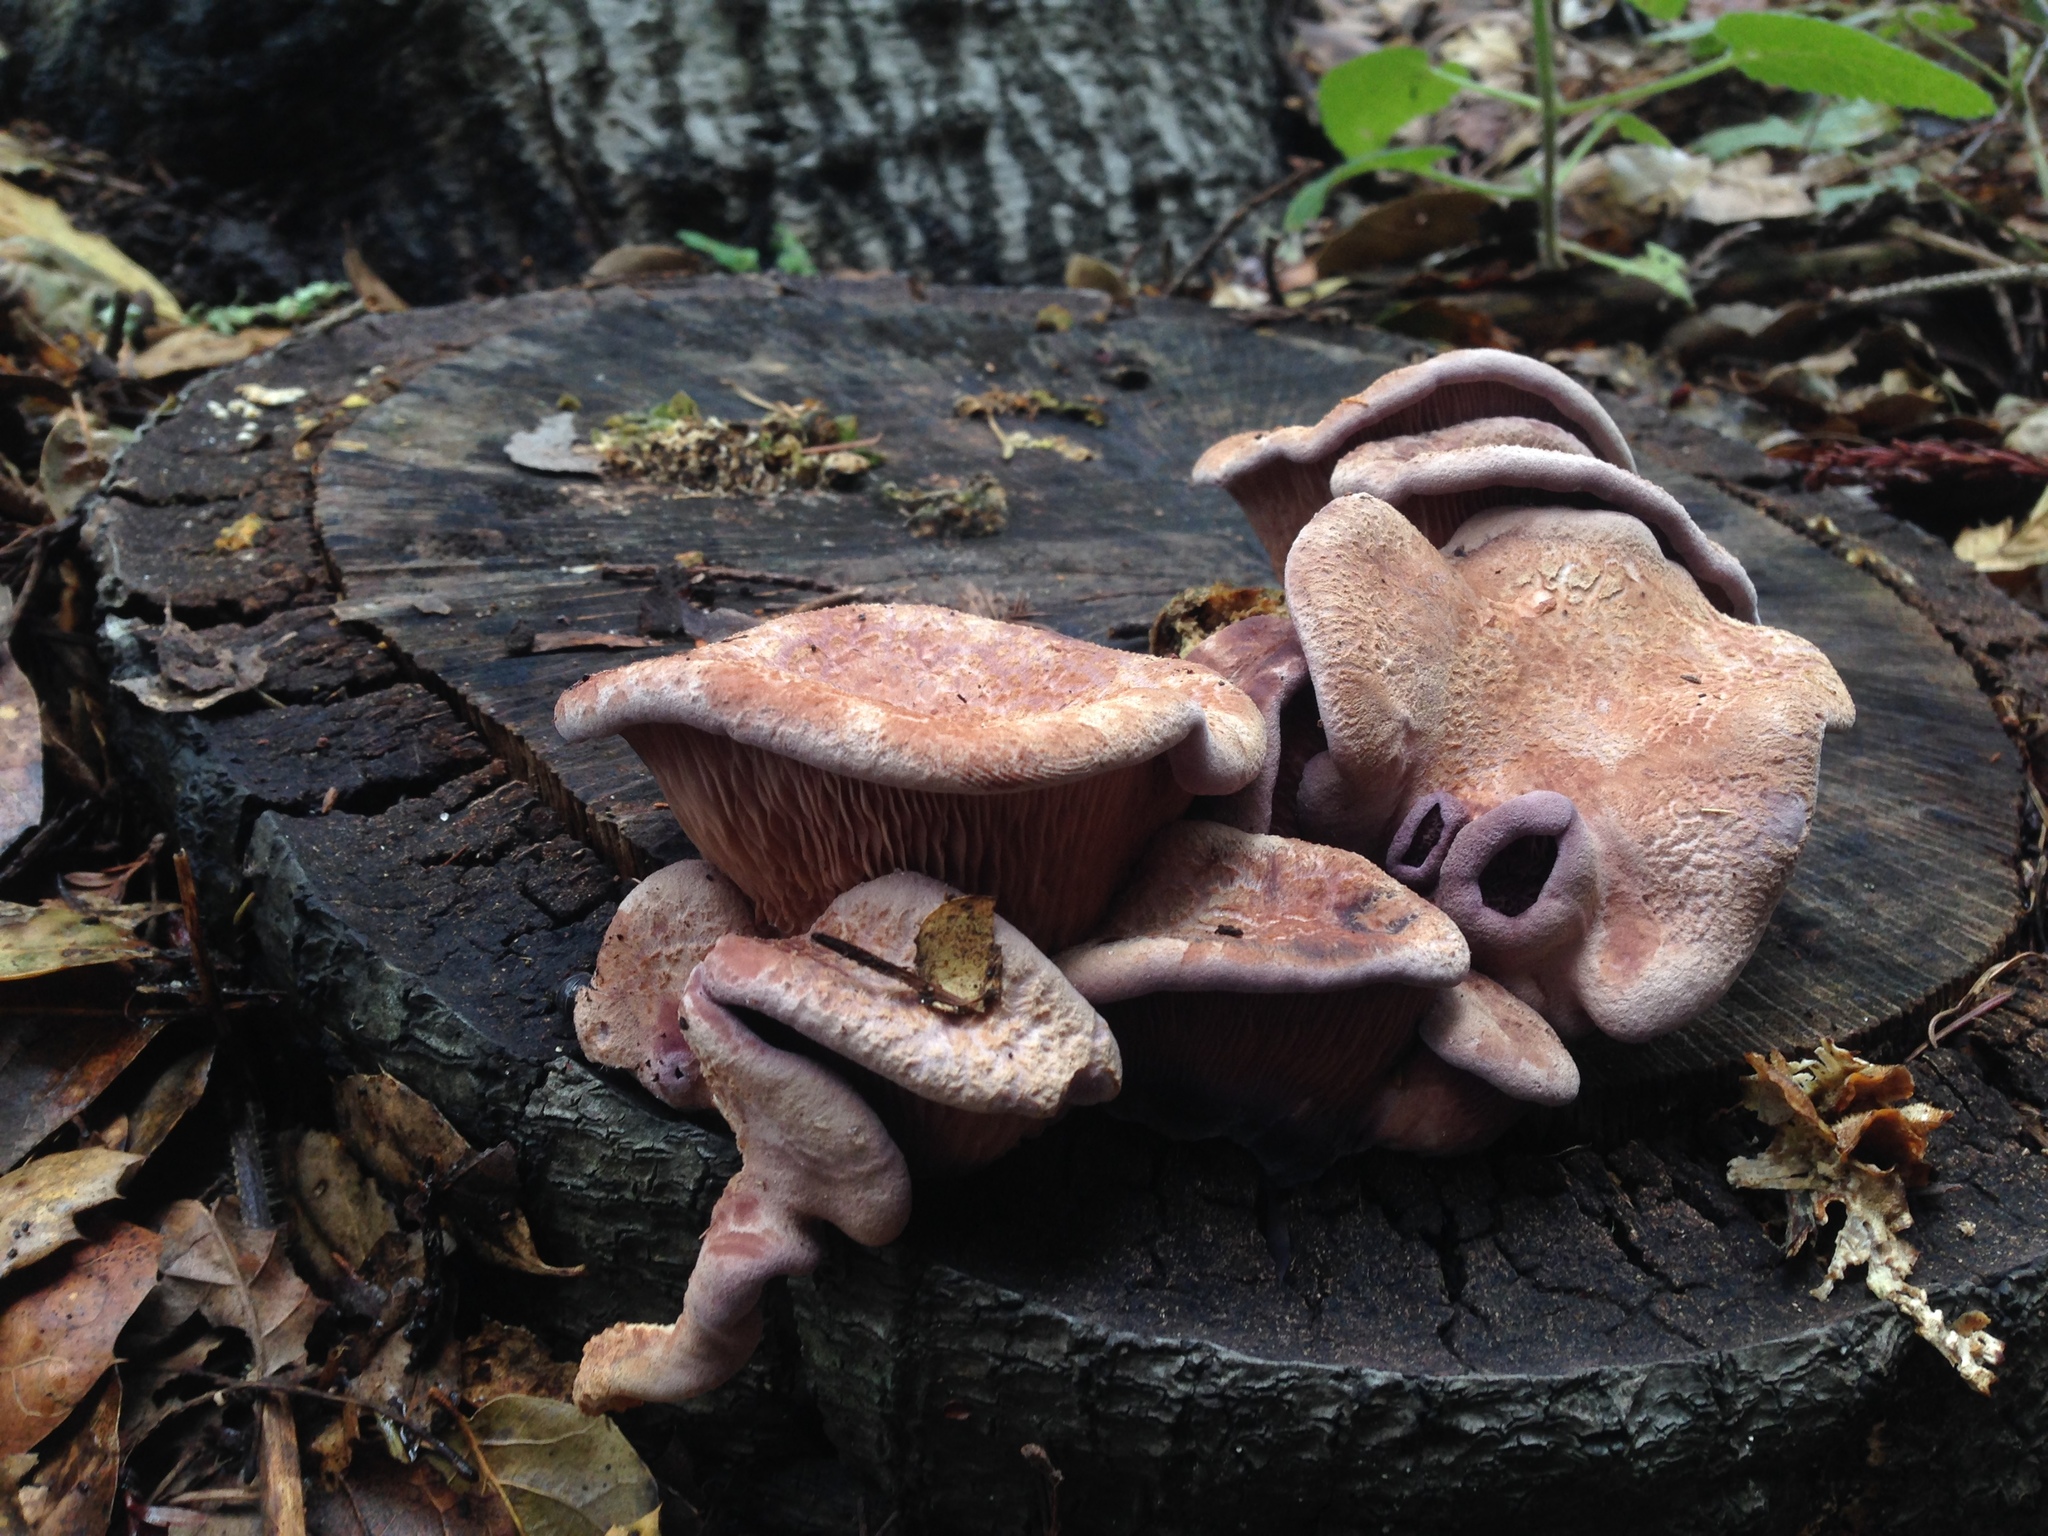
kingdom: Fungi
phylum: Basidiomycota
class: Agaricomycetes
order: Polyporales
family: Panaceae
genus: Panus
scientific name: Panus conchatus
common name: Lilac oysterling
